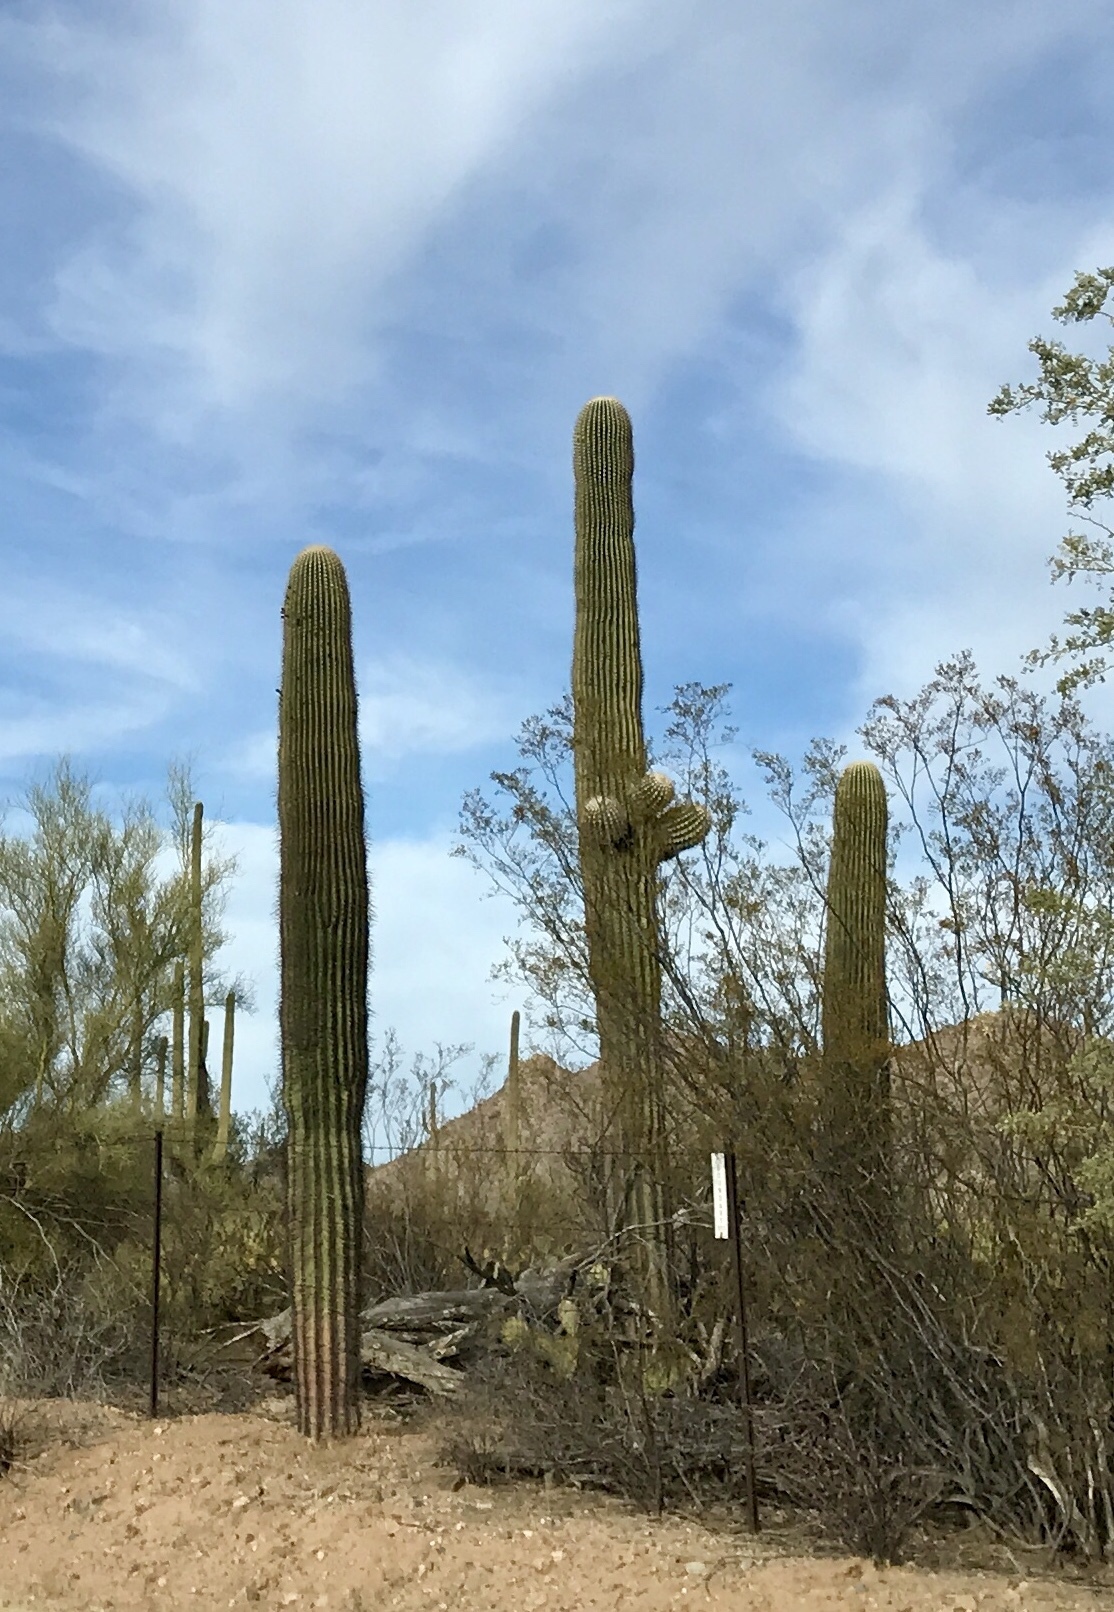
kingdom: Plantae
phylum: Tracheophyta
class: Magnoliopsida
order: Caryophyllales
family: Cactaceae
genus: Carnegiea
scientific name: Carnegiea gigantea
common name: Saguaro
